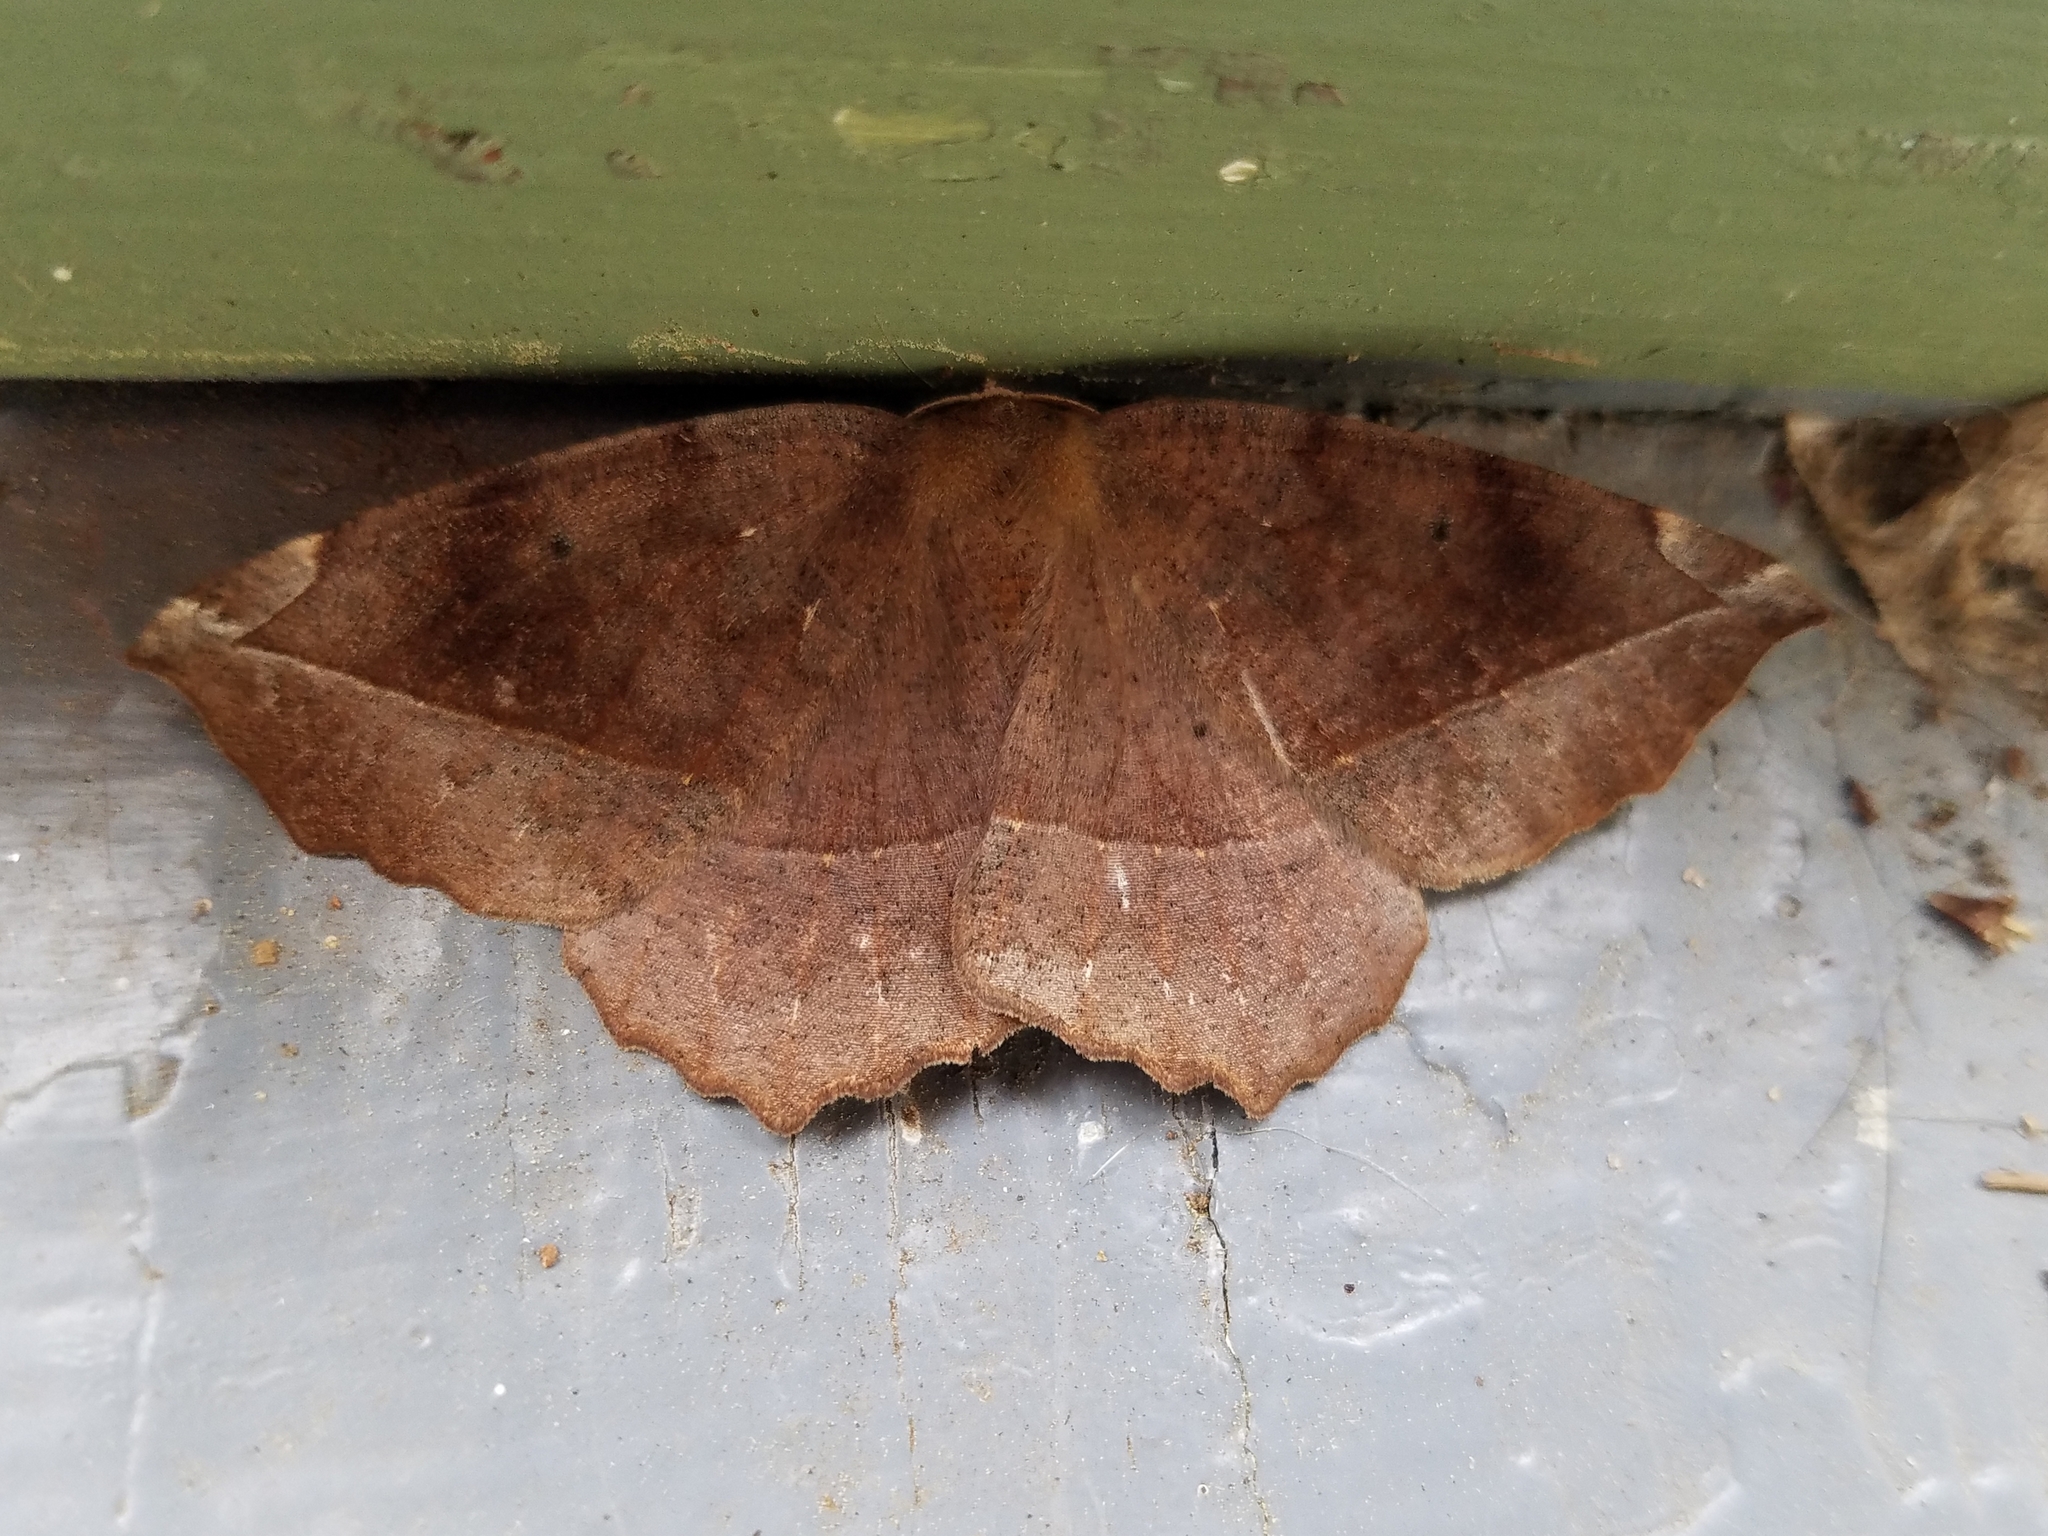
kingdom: Animalia
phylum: Arthropoda
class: Insecta
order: Lepidoptera
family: Geometridae
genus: Eutrapela
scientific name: Eutrapela clemataria
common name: Curved-toothed geometer
